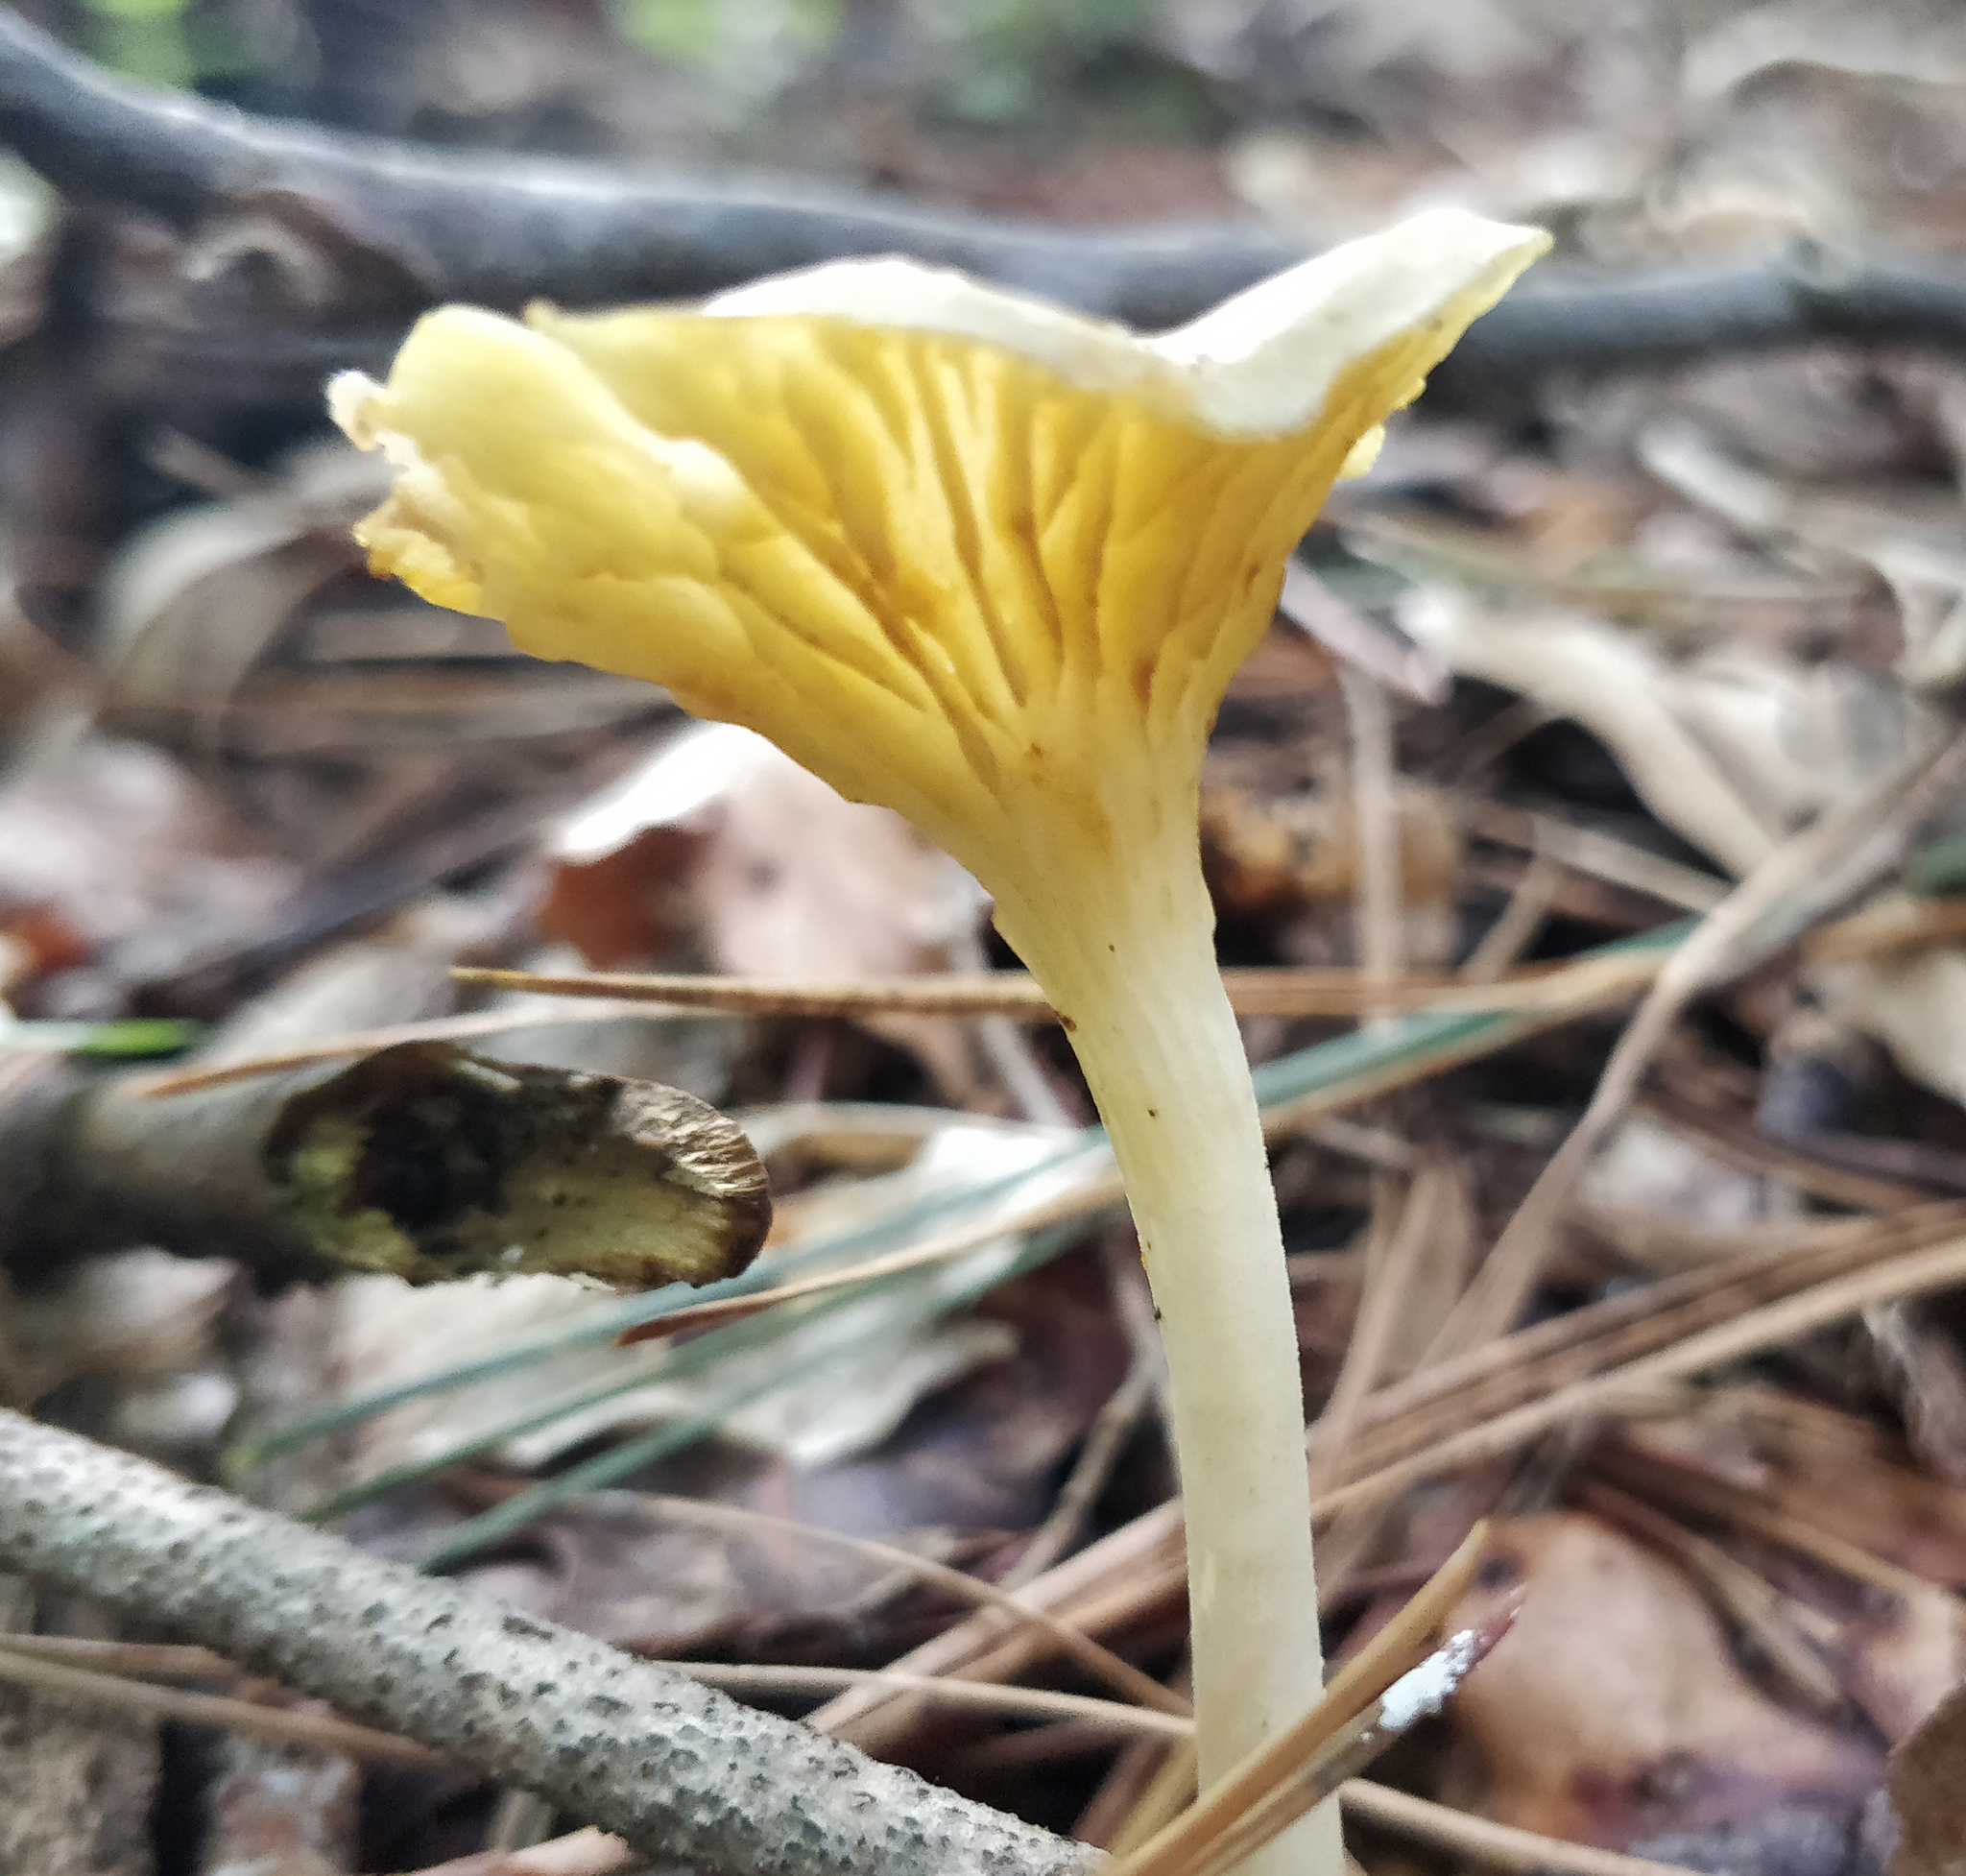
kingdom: Fungi
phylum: Basidiomycota
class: Agaricomycetes
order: Agaricales
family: Marasmiaceae
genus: Gerronema
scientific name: Gerronema strombodes
